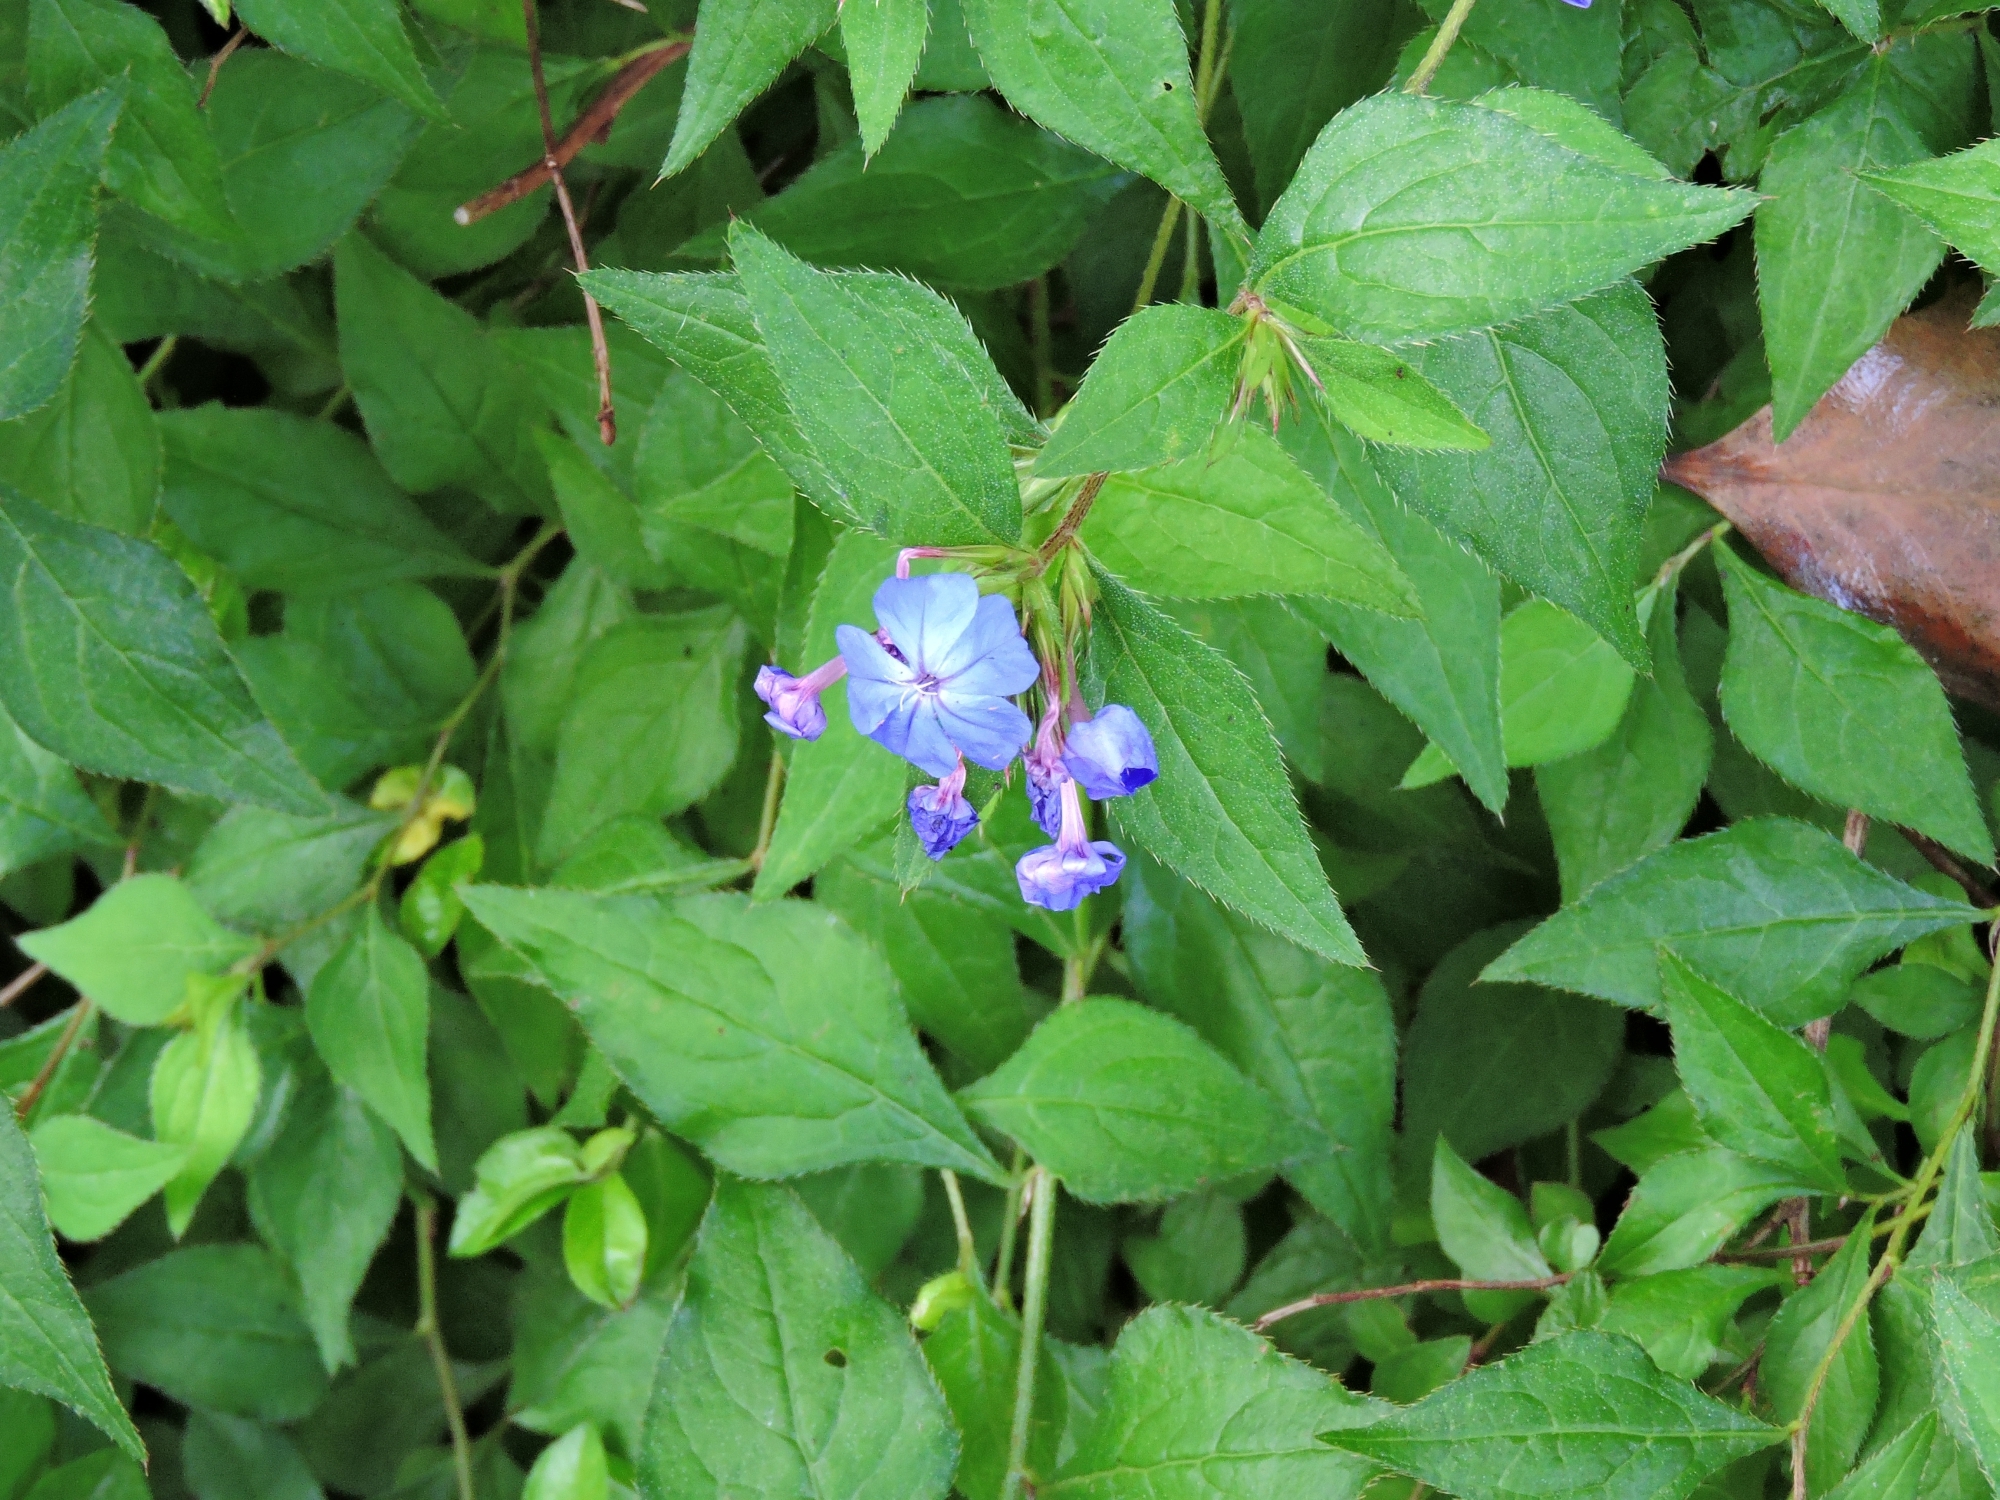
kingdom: Plantae
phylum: Tracheophyta
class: Magnoliopsida
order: Caryophyllales
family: Plumbaginaceae
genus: Ceratostigma
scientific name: Ceratostigma plumbaginoides
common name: Blue leadwood
